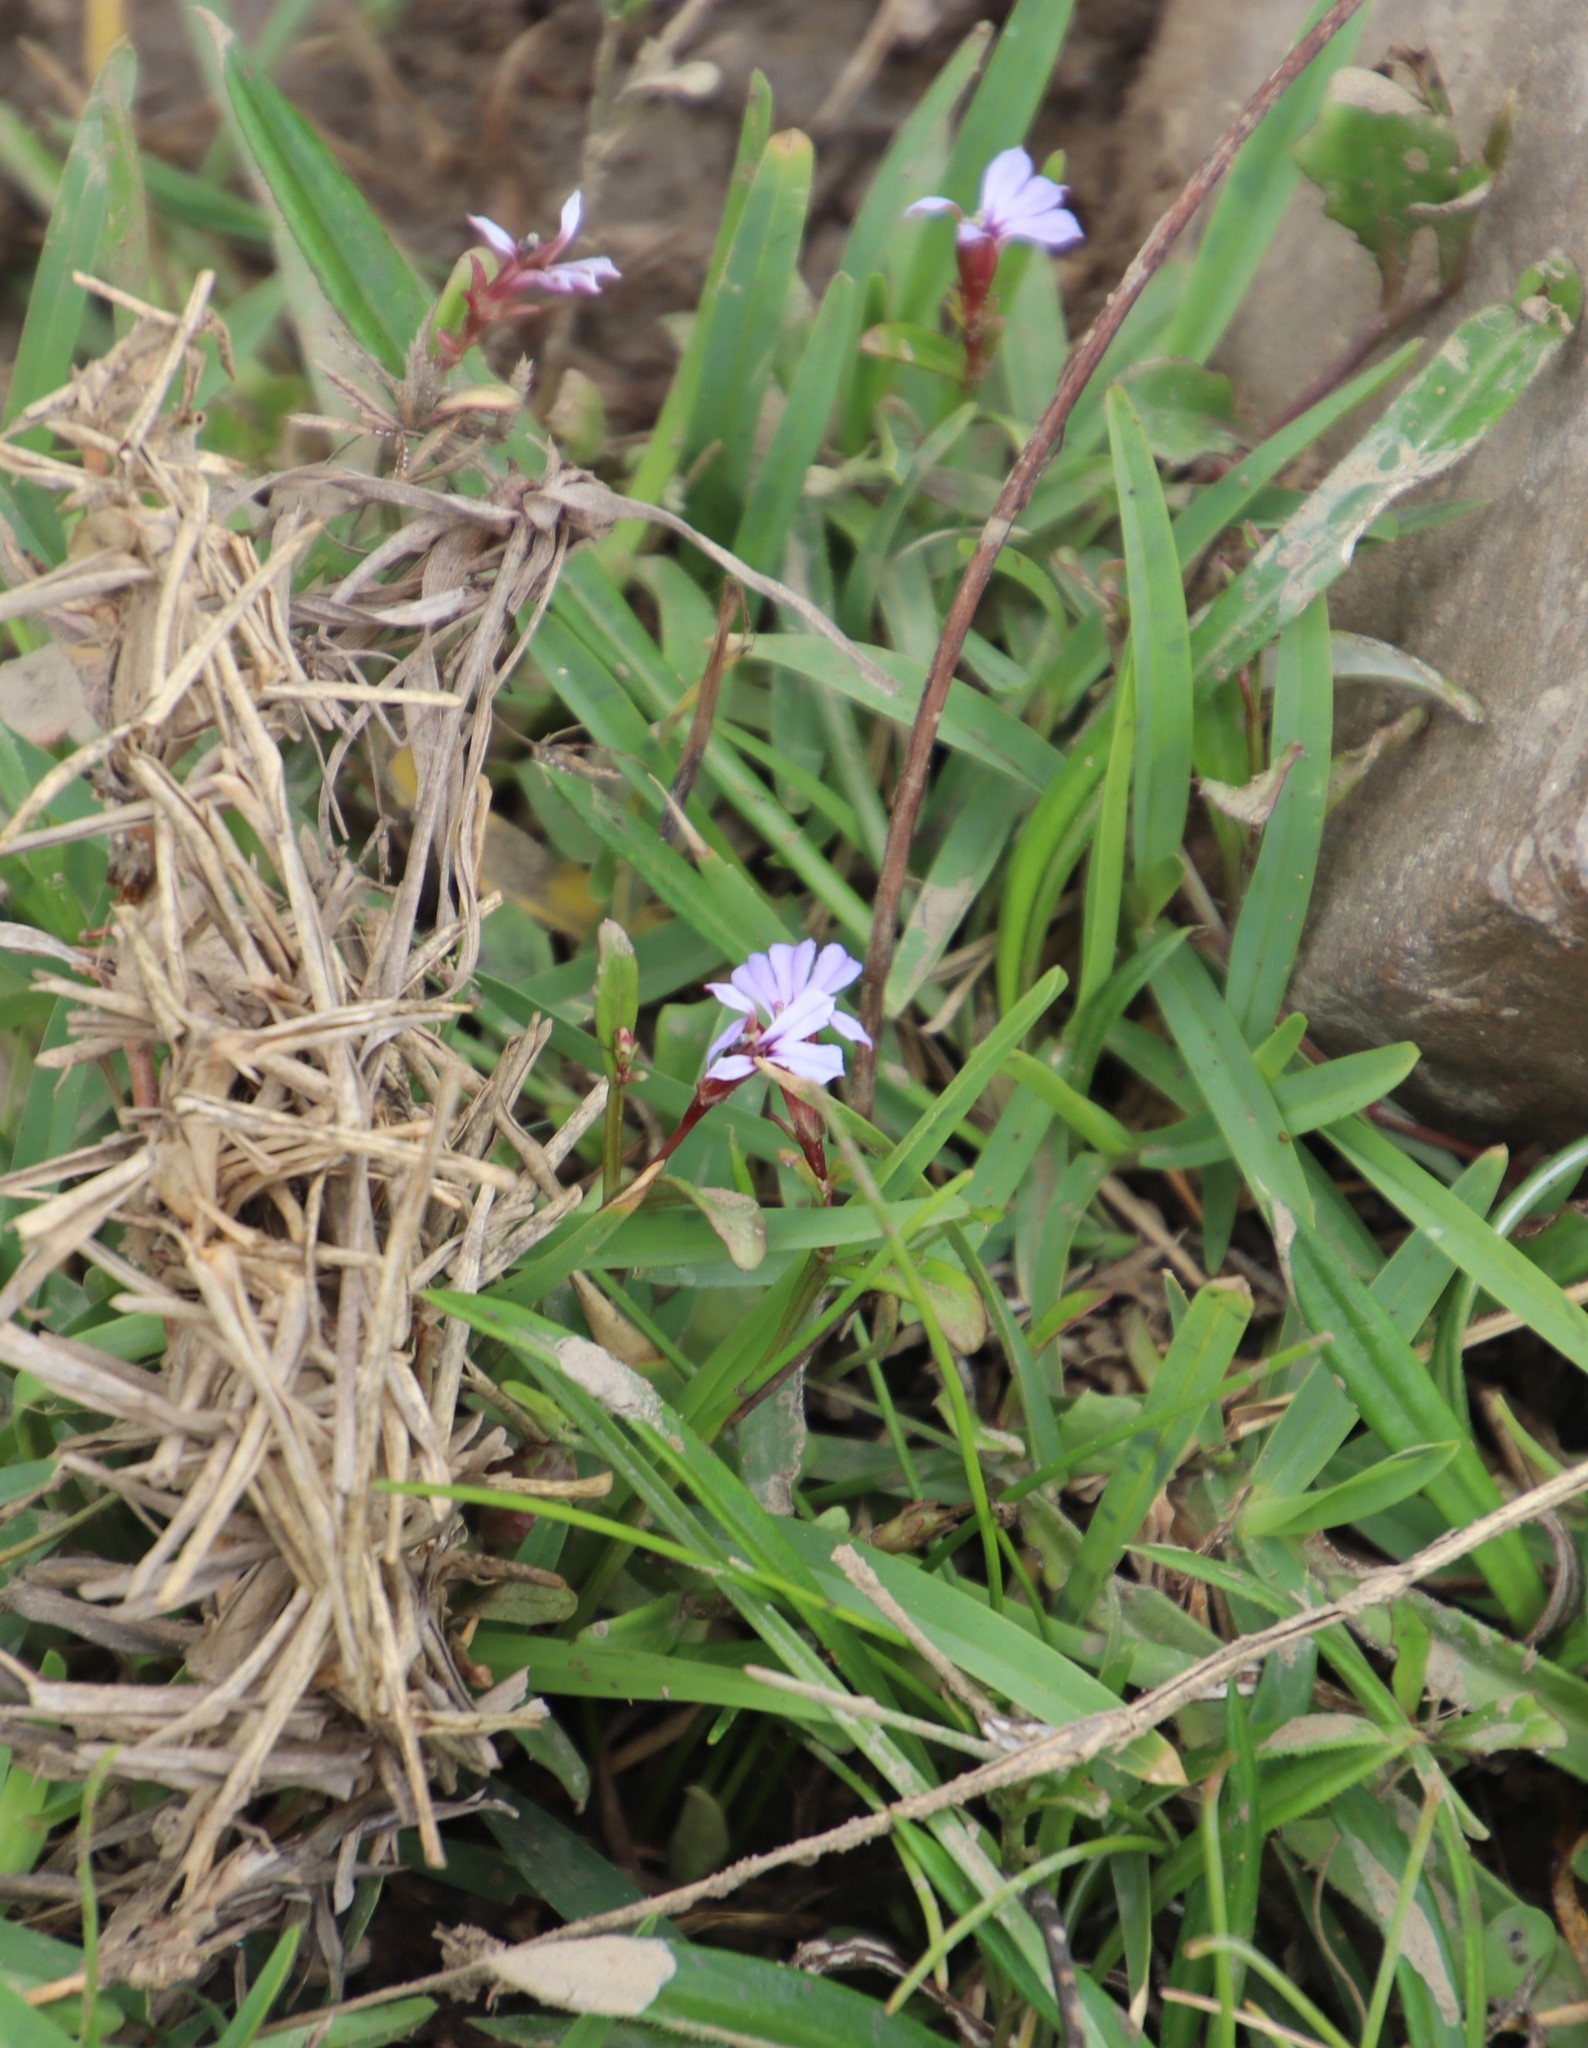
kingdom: Plantae
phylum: Tracheophyta
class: Magnoliopsida
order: Asterales
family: Campanulaceae
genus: Lobelia
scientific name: Lobelia anceps
